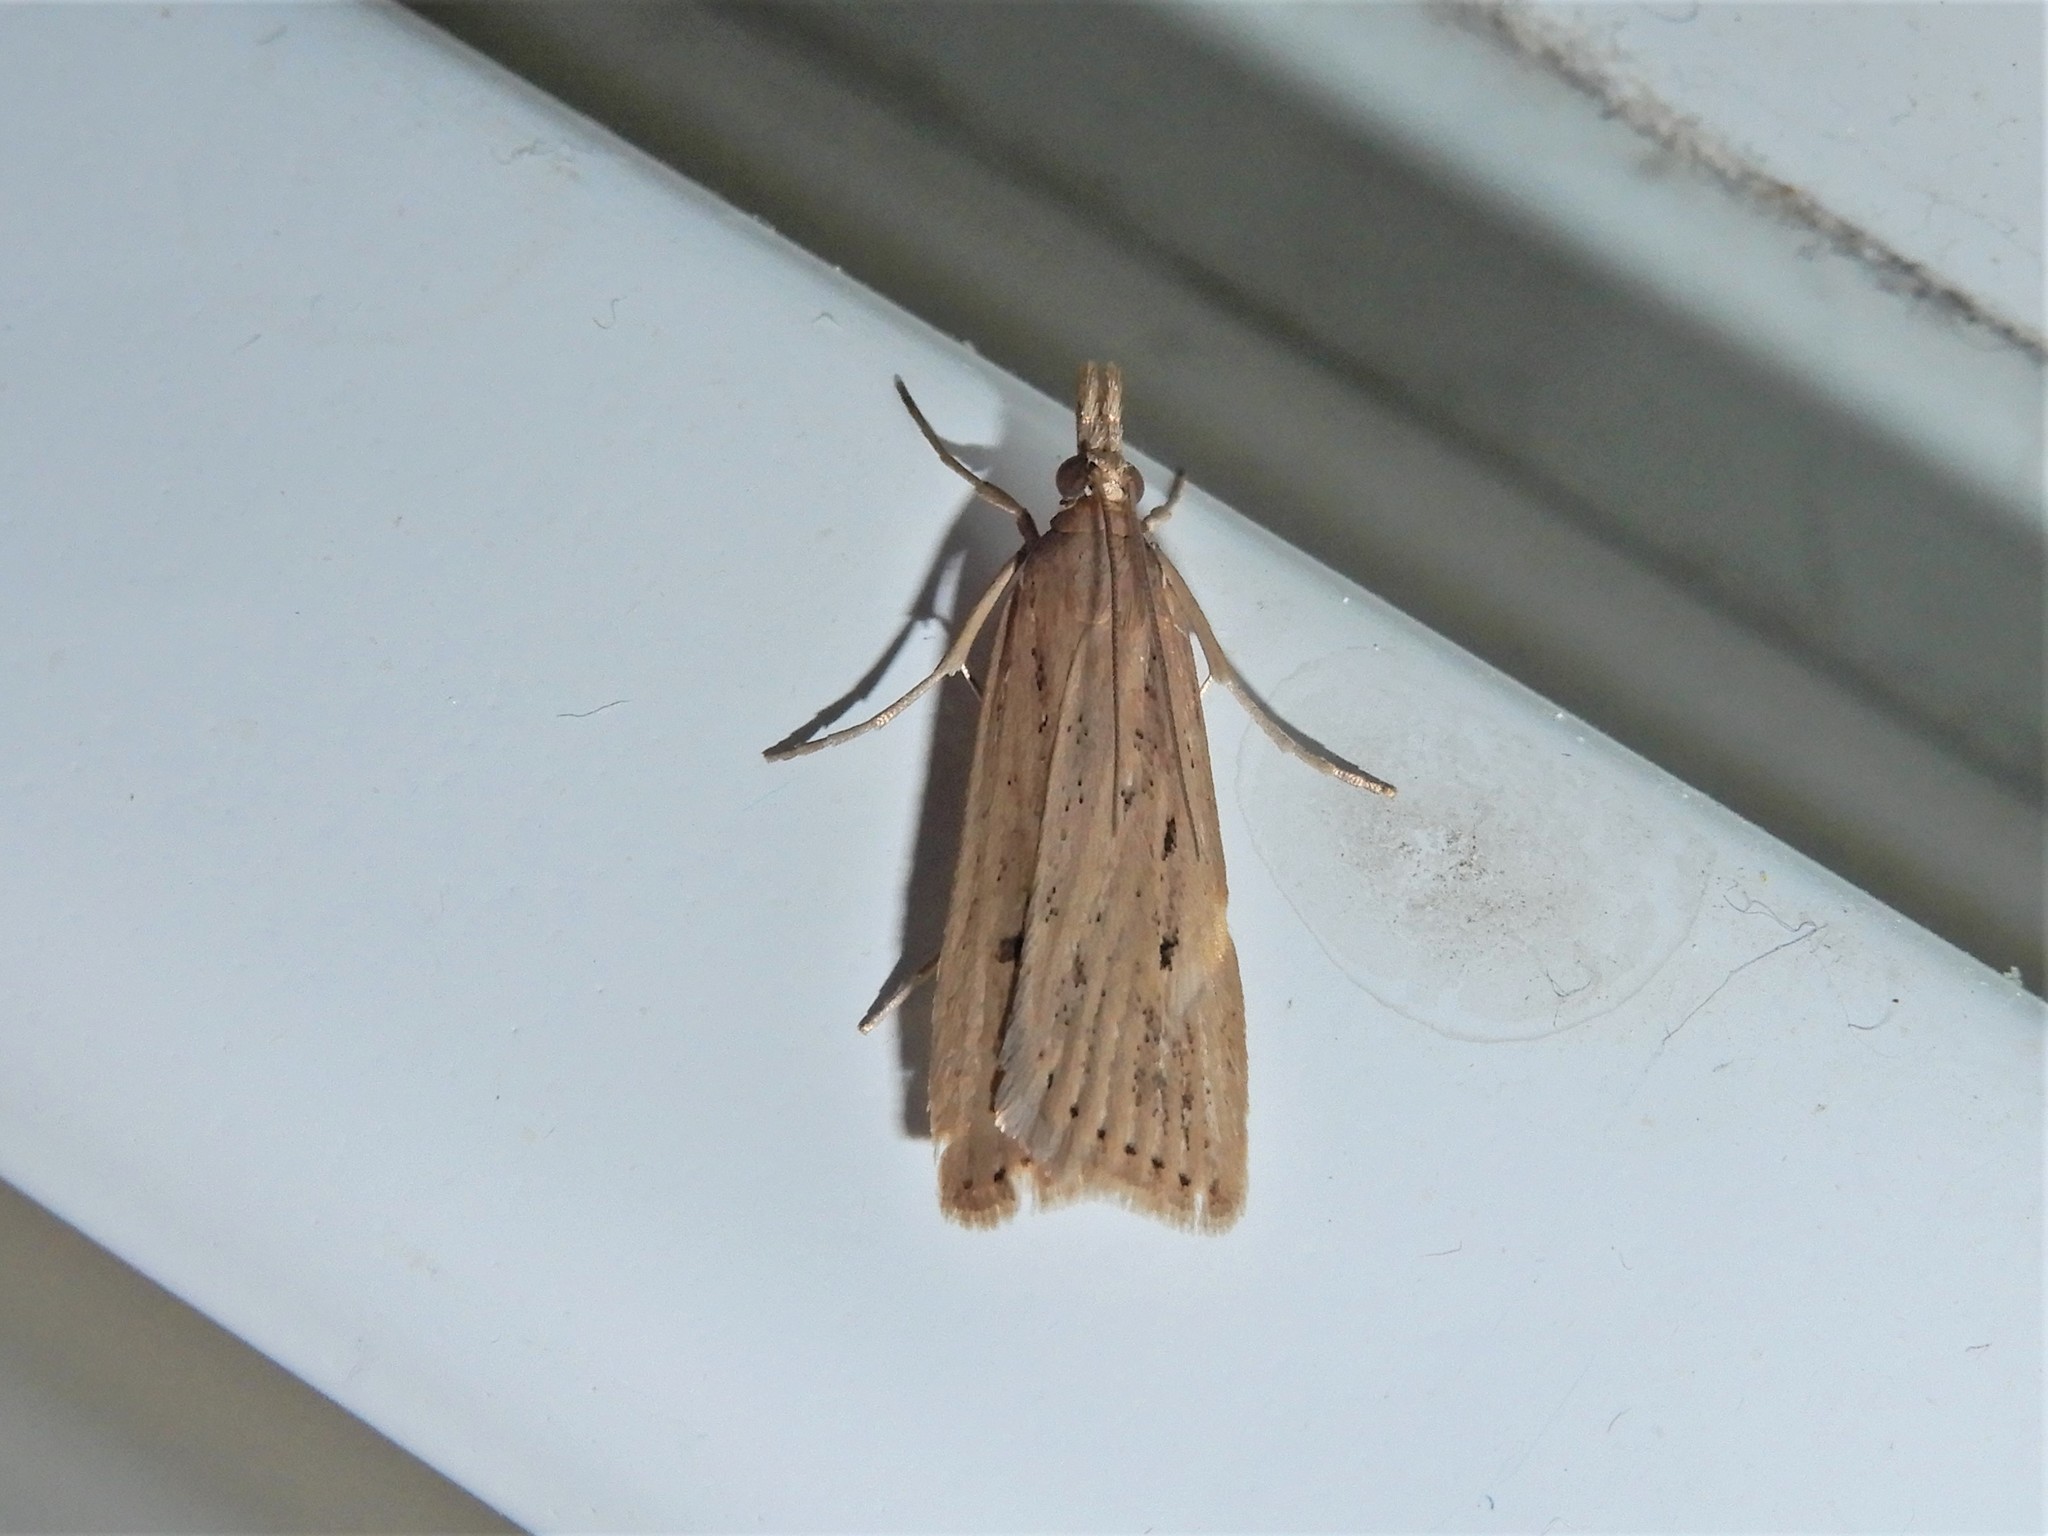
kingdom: Animalia
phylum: Arthropoda
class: Insecta
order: Lepidoptera
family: Crambidae
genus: Eudonia
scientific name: Eudonia sabulosella
